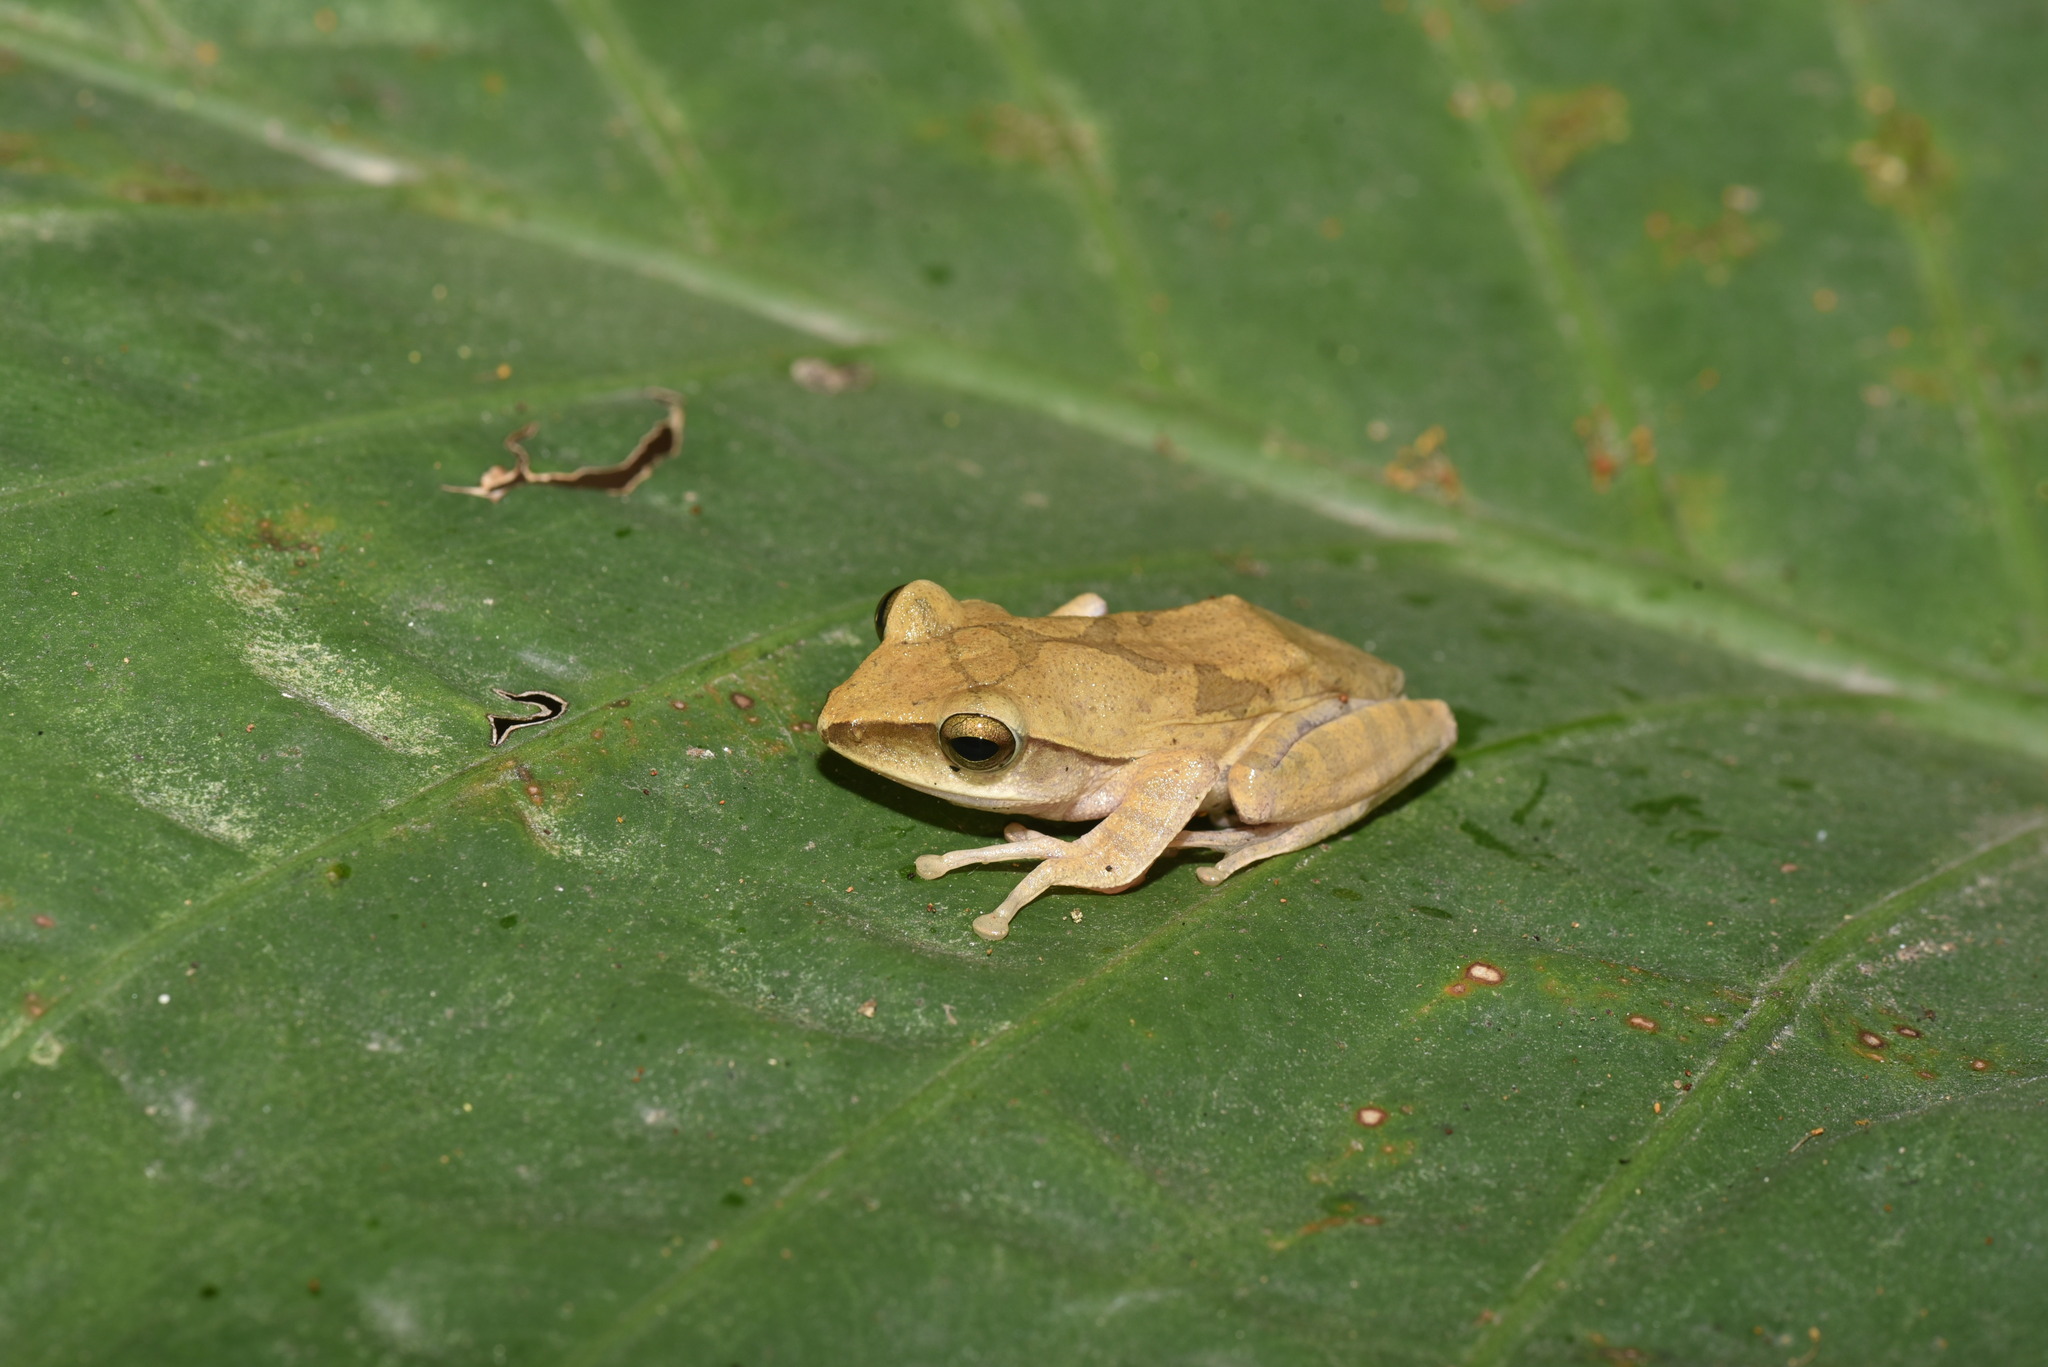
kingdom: Animalia
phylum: Chordata
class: Amphibia
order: Anura
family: Rhacophoridae
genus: Polypedates
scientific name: Polypedates megacephalus
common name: Hong kong whipping frog
